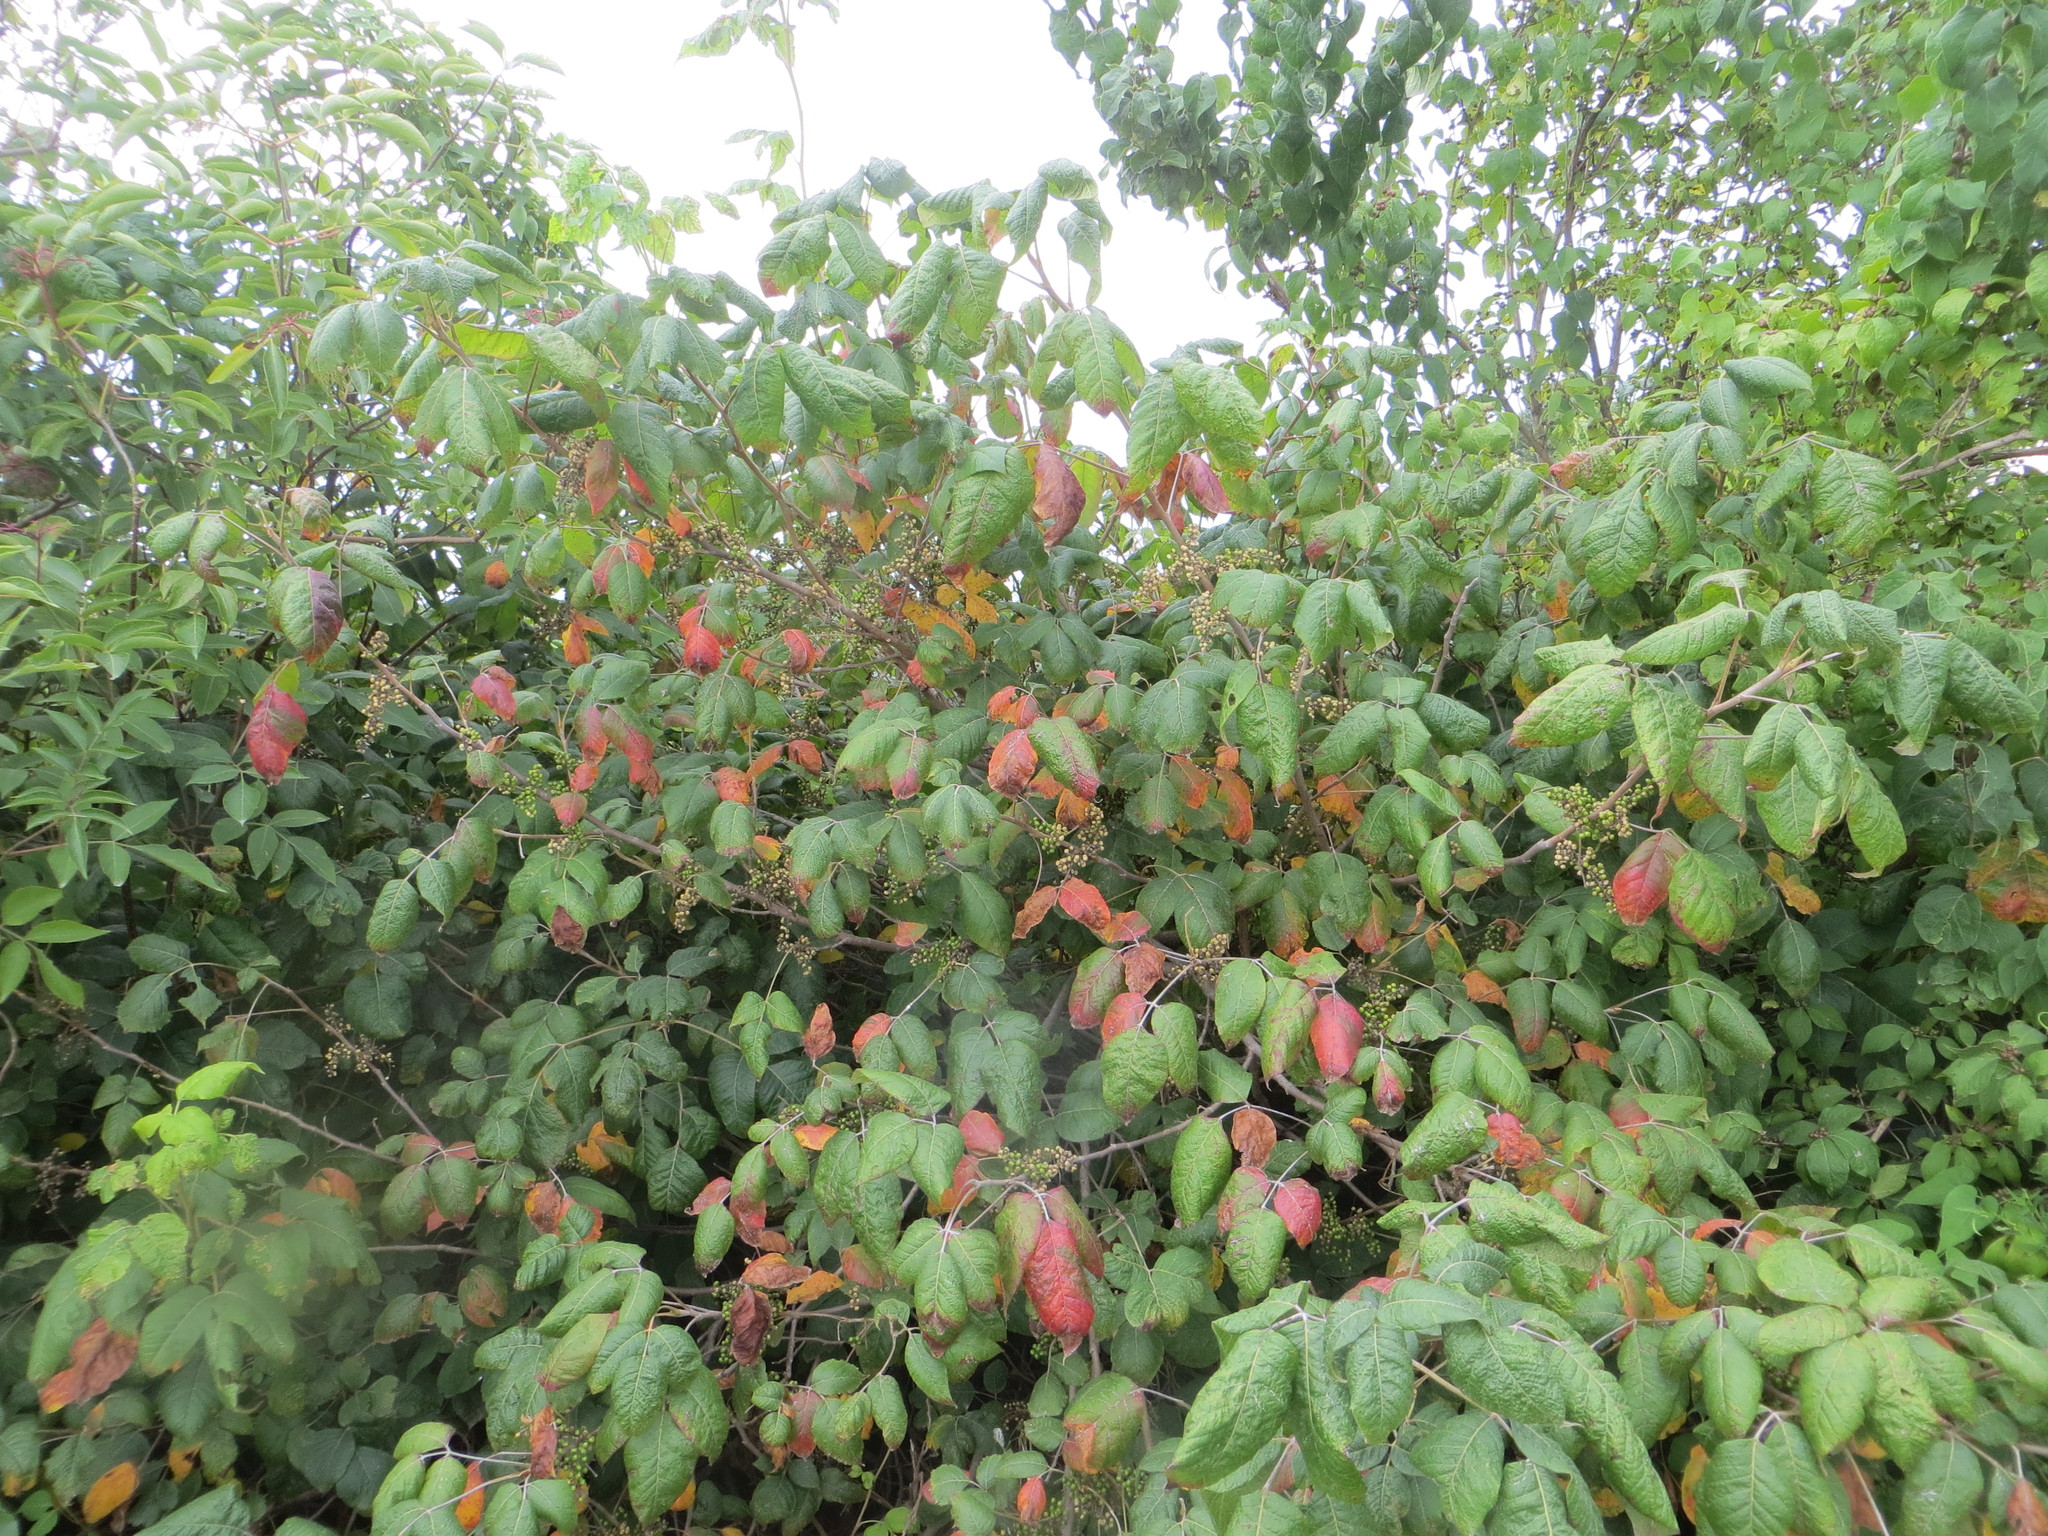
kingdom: Plantae
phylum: Tracheophyta
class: Magnoliopsida
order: Sapindales
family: Anacardiaceae
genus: Toxicodendron
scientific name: Toxicodendron radicans
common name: Poison ivy
